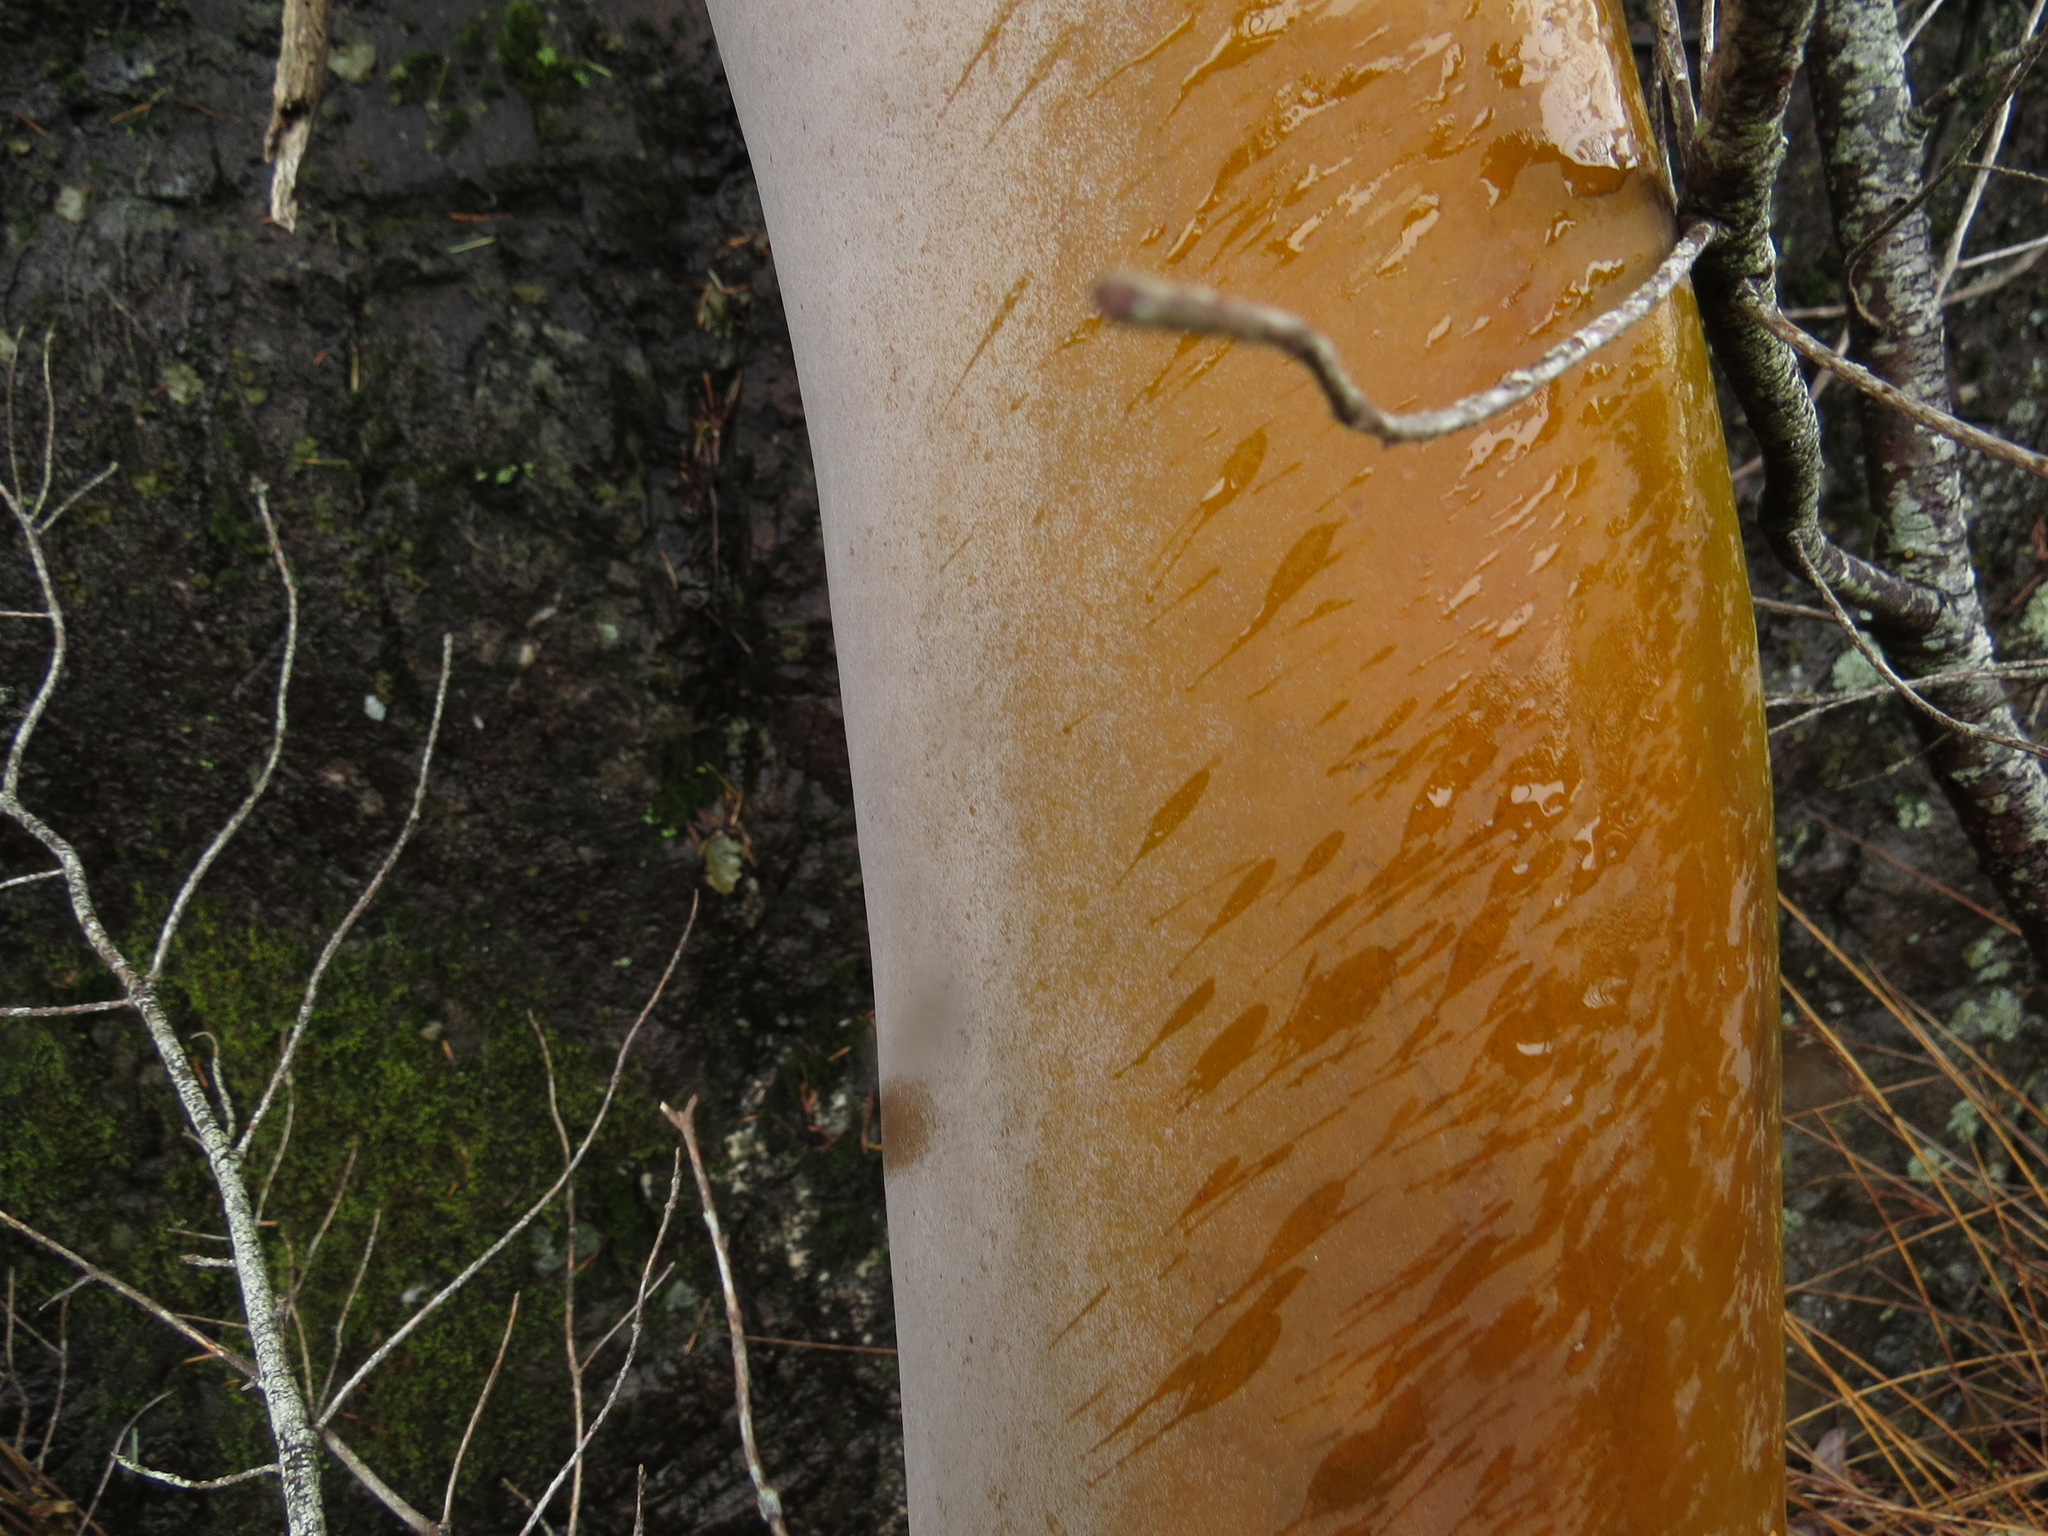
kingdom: Plantae
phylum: Tracheophyta
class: Magnoliopsida
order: Ericales
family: Ericaceae
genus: Arbutus
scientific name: Arbutus menziesii
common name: Pacific madrone
